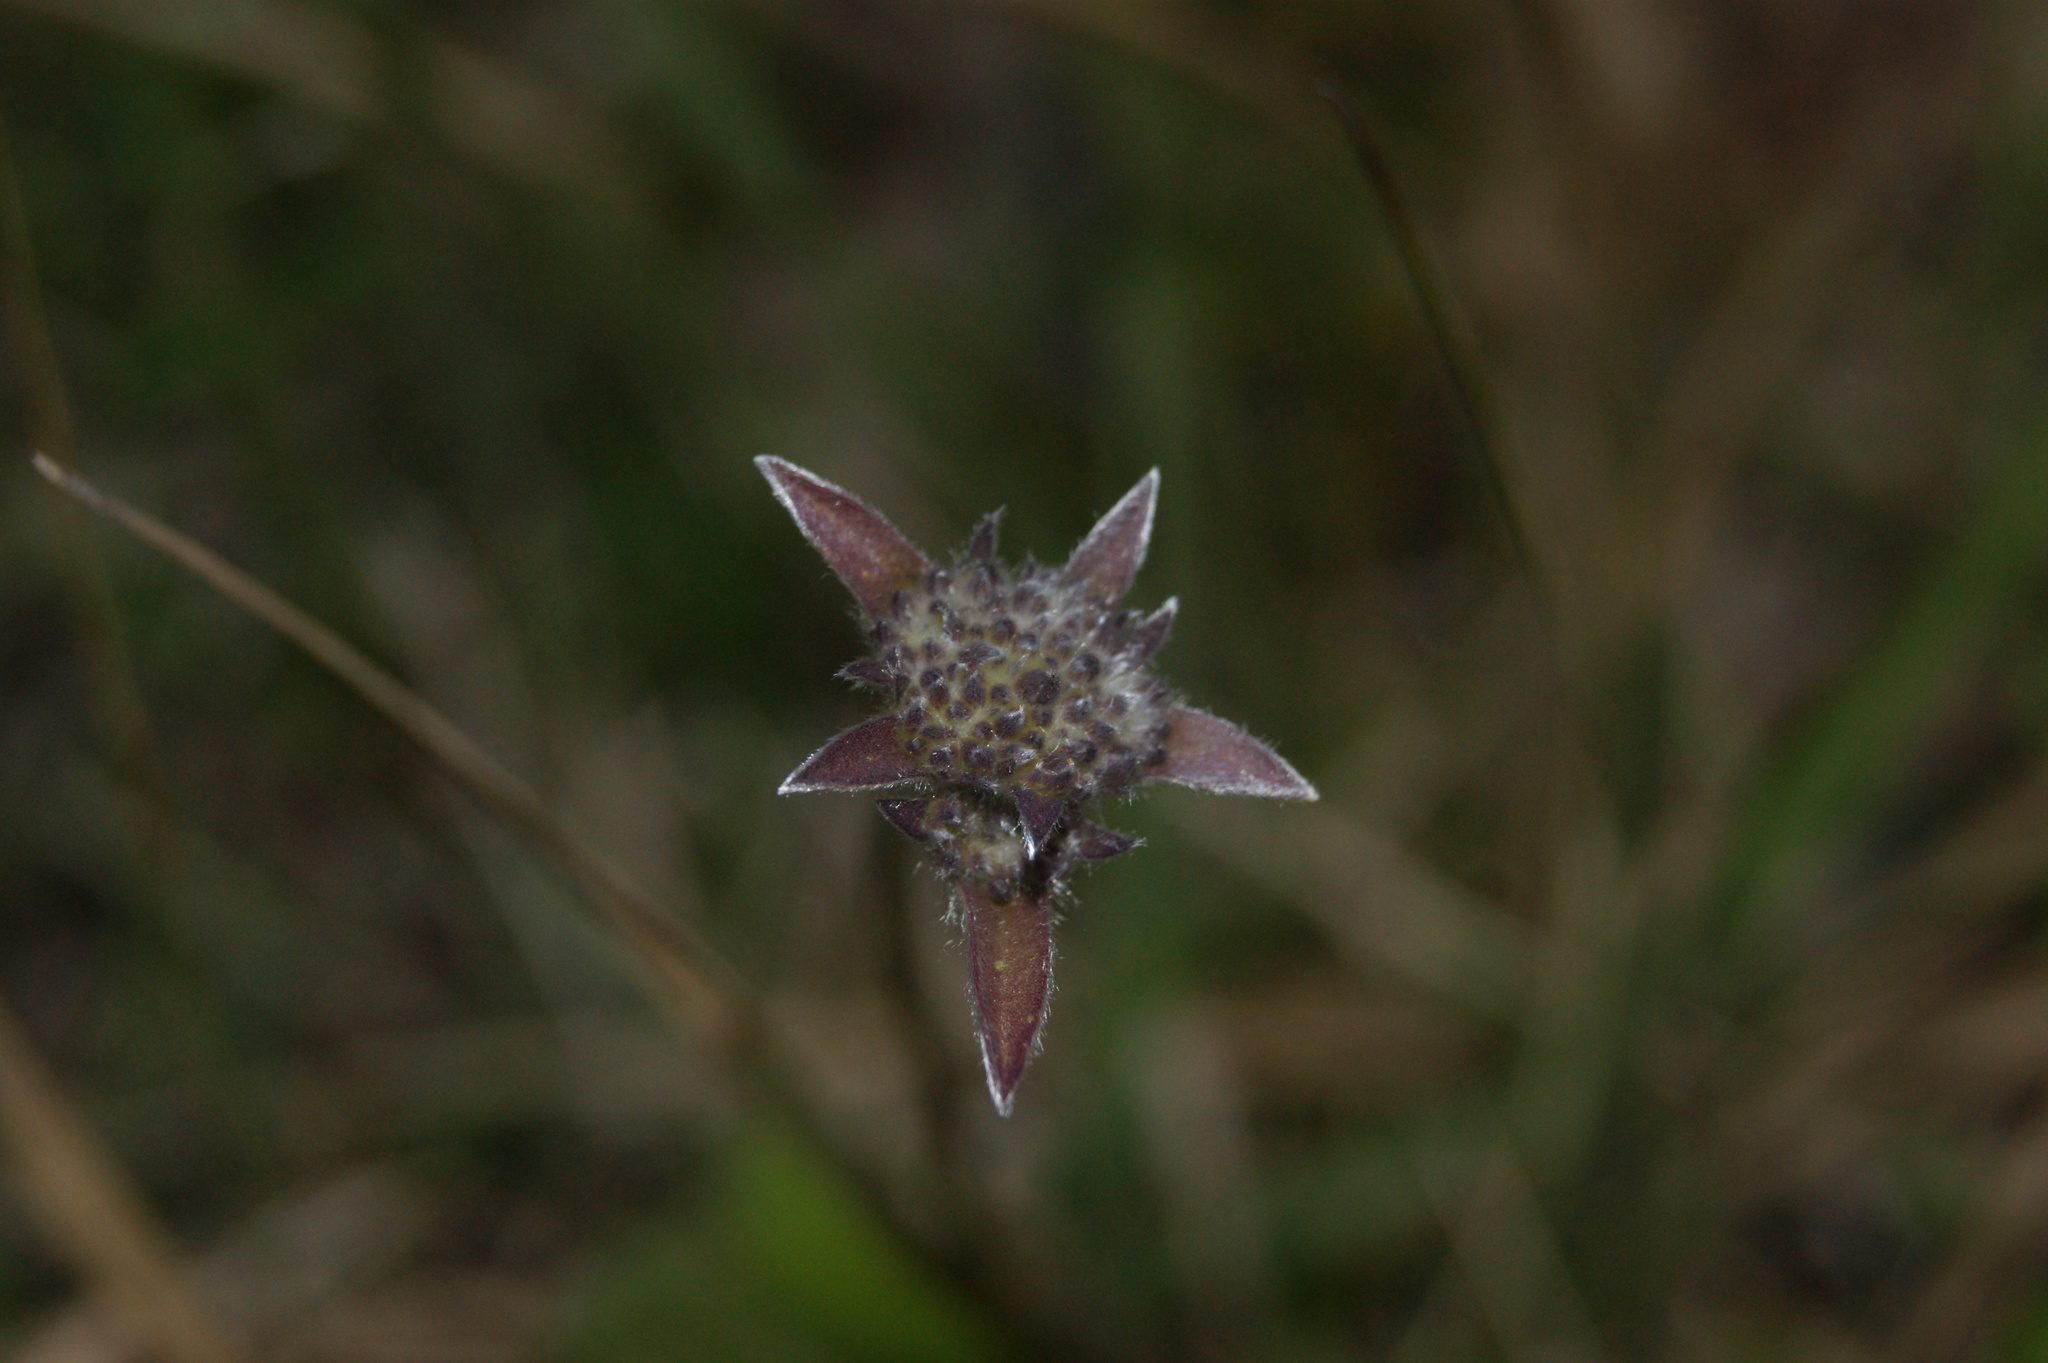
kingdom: Plantae
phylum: Tracheophyta
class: Magnoliopsida
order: Asterales
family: Goodeniaceae
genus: Brunonia
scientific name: Brunonia australis
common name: Blue pincushion
